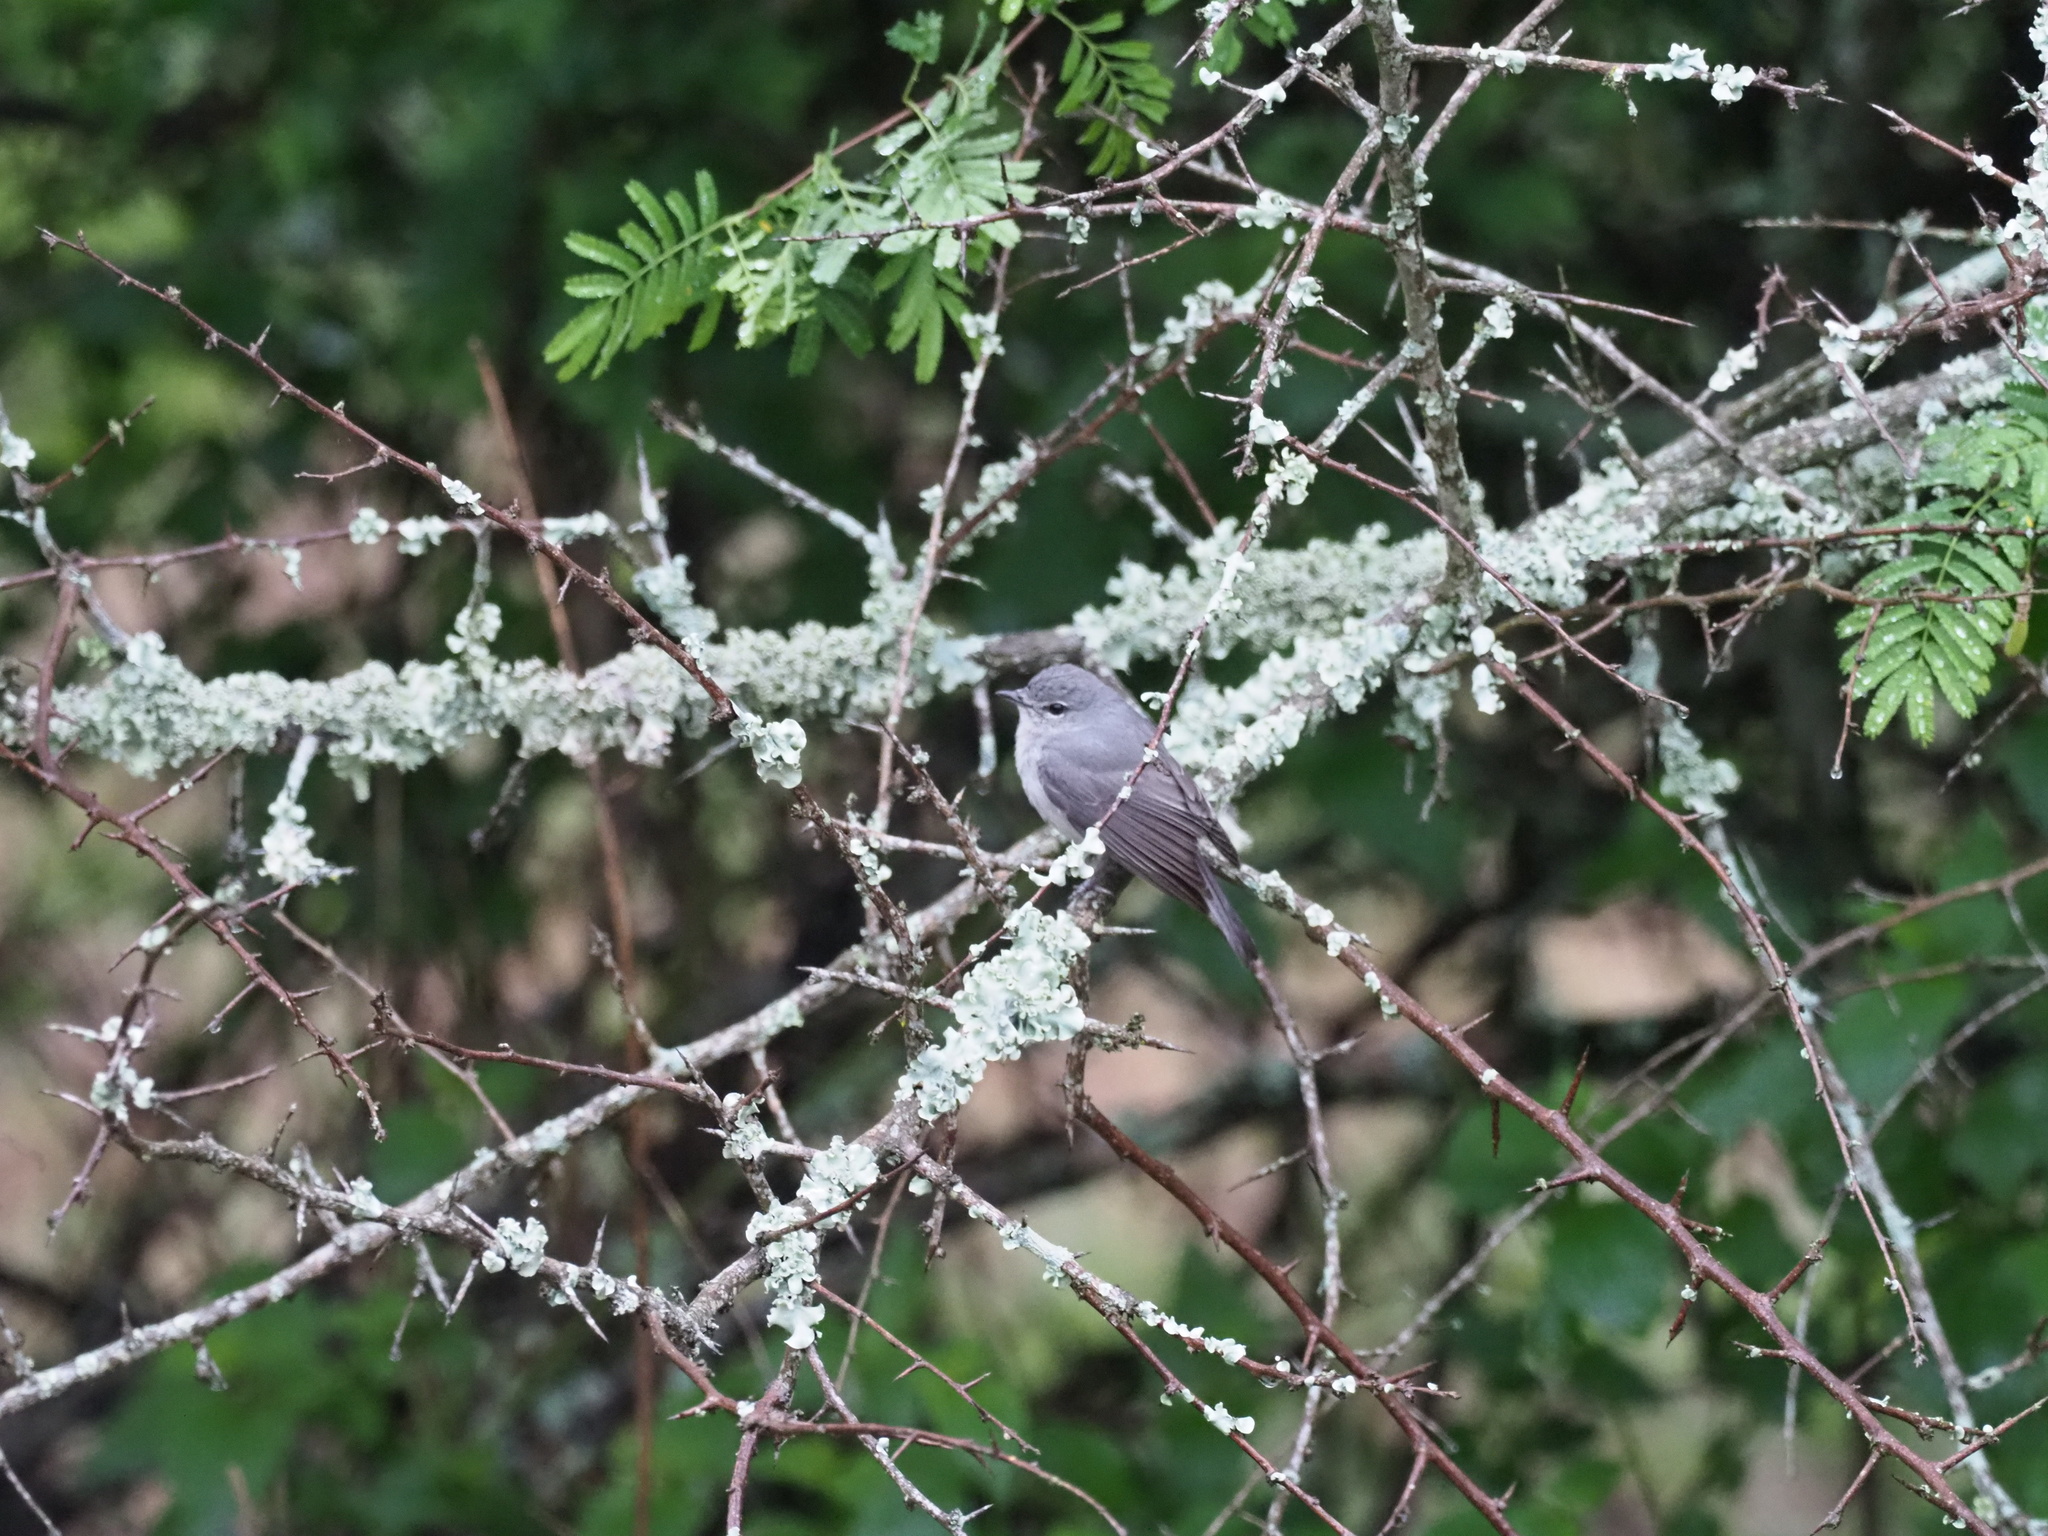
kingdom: Animalia
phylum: Chordata
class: Aves
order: Passeriformes
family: Muscicapidae
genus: Muscicapa
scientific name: Muscicapa caerulescens
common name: Ashy flycatcher
